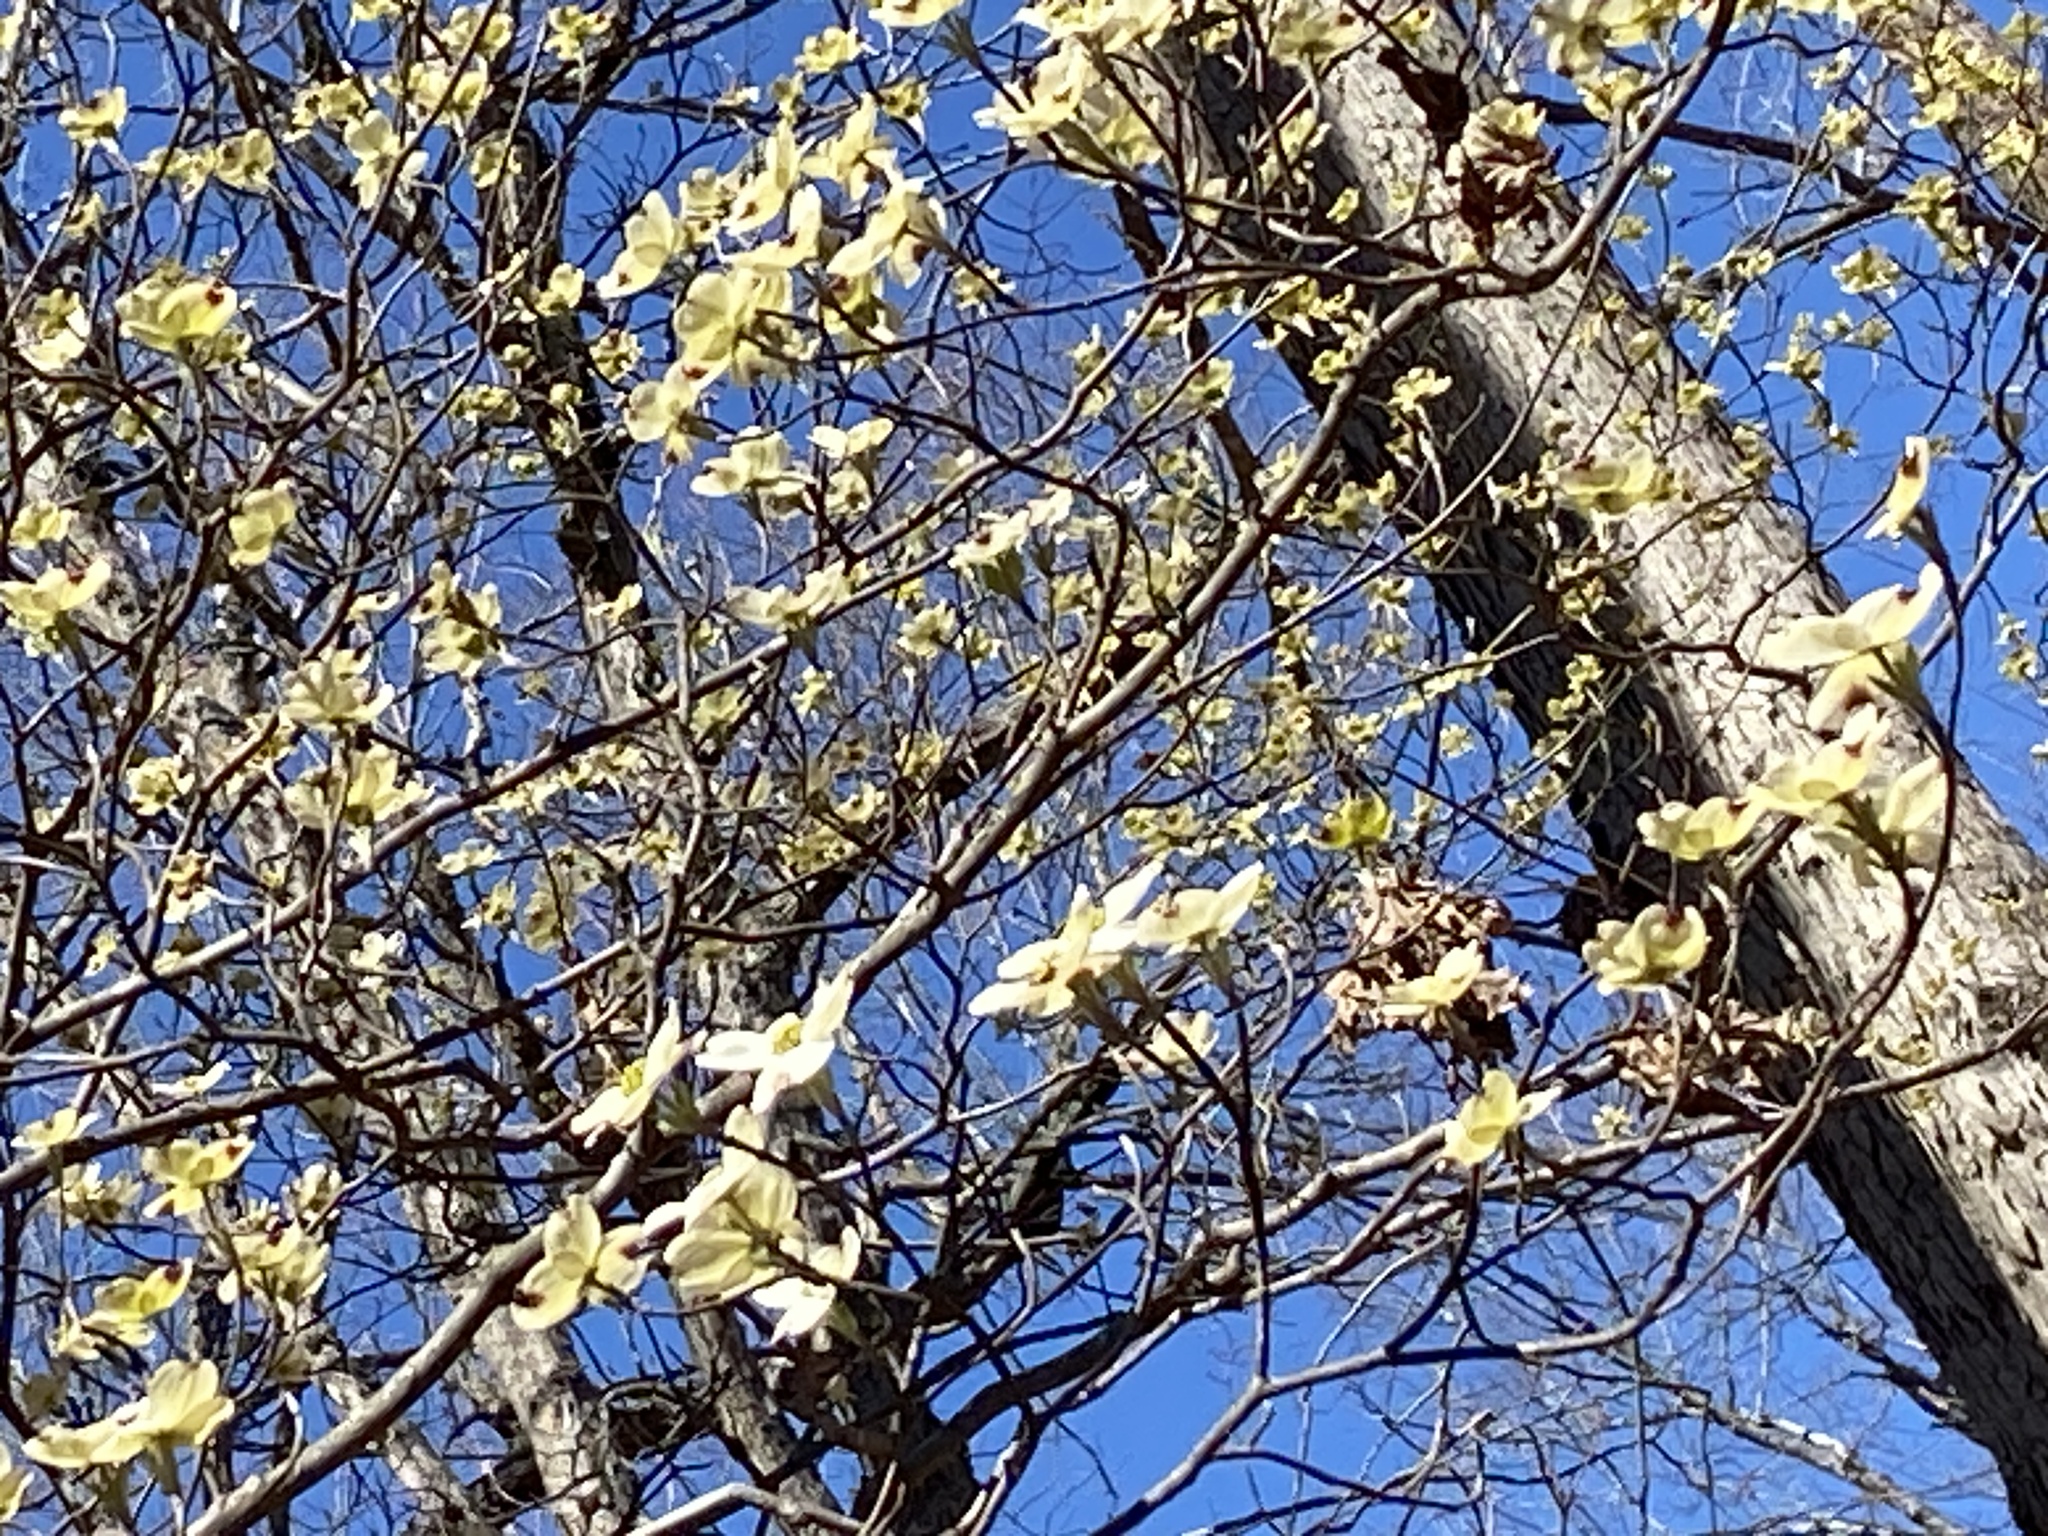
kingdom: Plantae
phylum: Tracheophyta
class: Magnoliopsida
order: Cornales
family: Cornaceae
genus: Cornus
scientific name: Cornus florida
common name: Flowering dogwood
